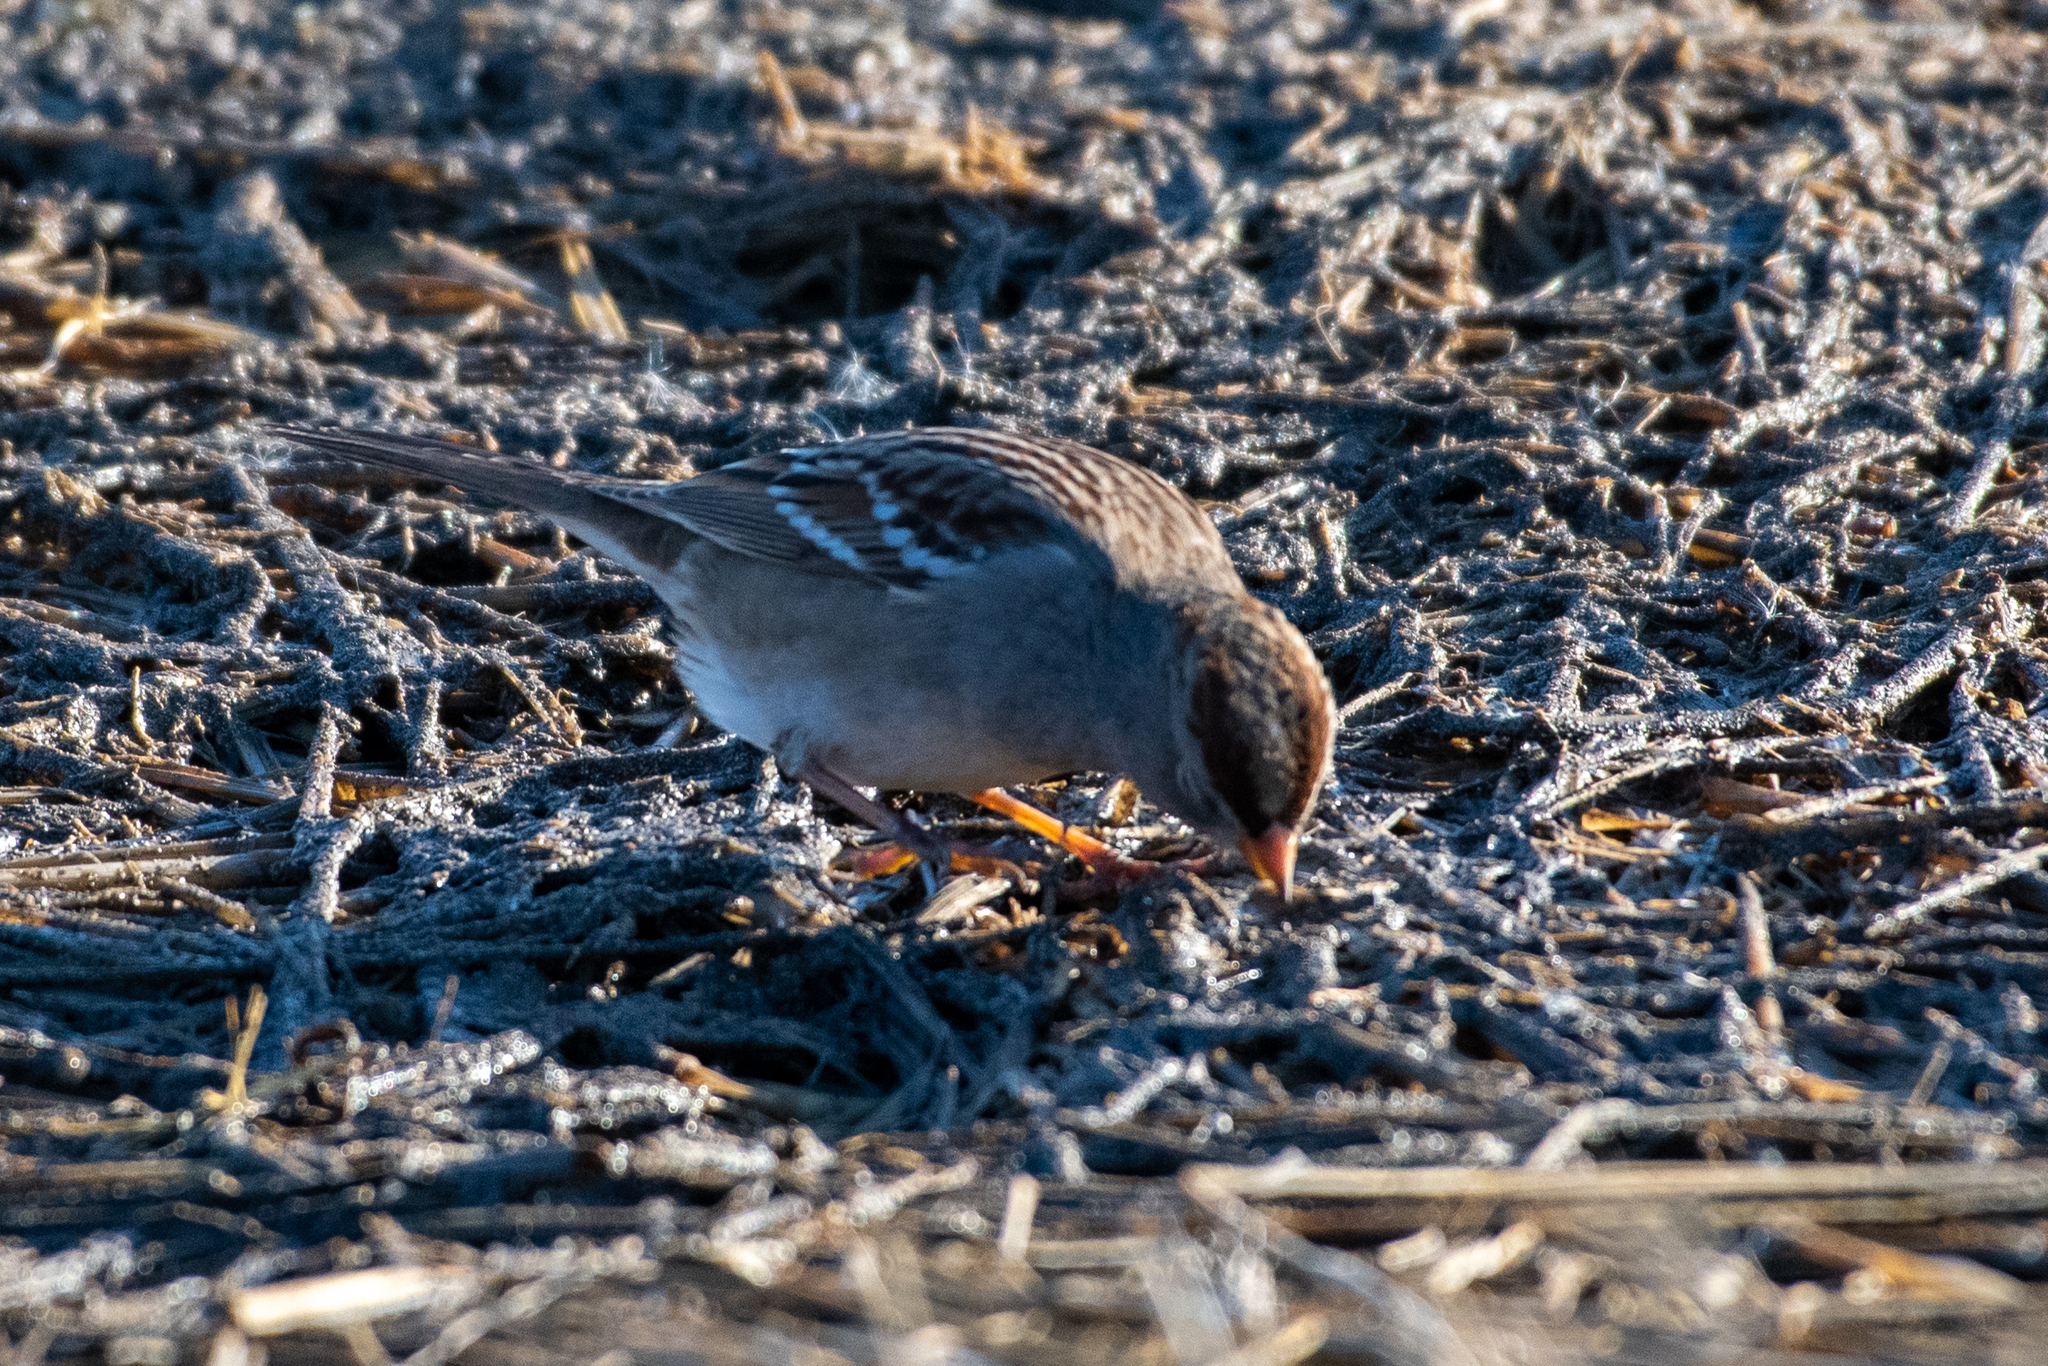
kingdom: Animalia
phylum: Chordata
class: Aves
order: Passeriformes
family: Passerellidae
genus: Zonotrichia
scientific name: Zonotrichia leucophrys
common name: White-crowned sparrow
